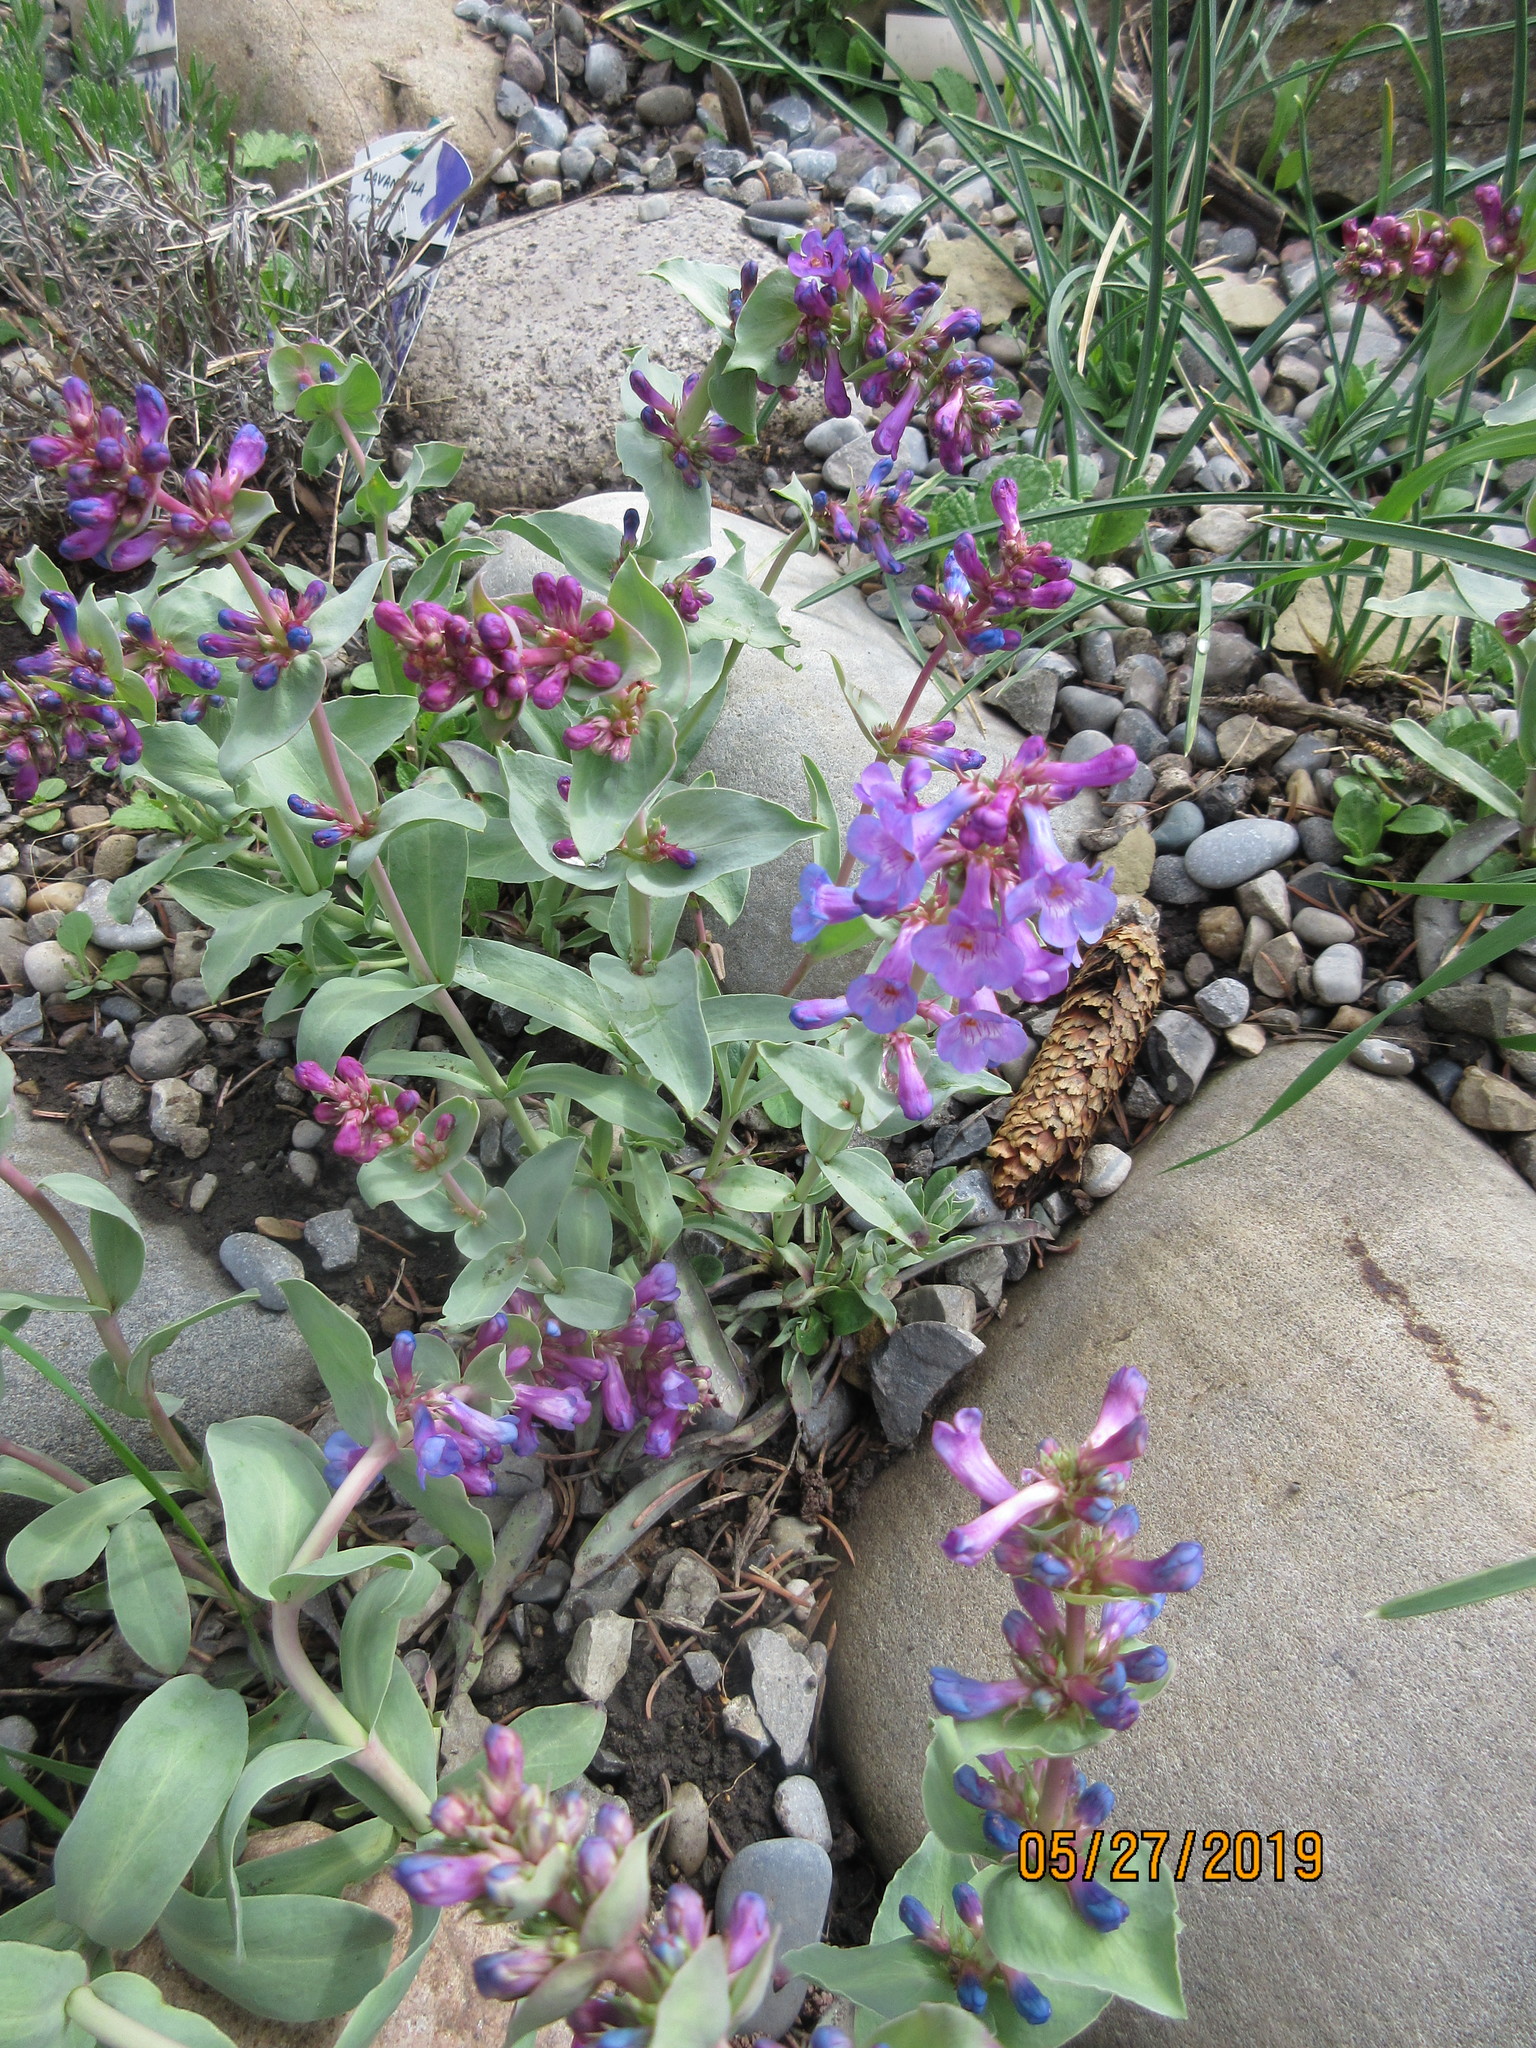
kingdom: Plantae
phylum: Tracheophyta
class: Magnoliopsida
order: Lamiales
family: Plantaginaceae
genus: Penstemon
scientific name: Penstemon nitidus
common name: Shining penstemon
